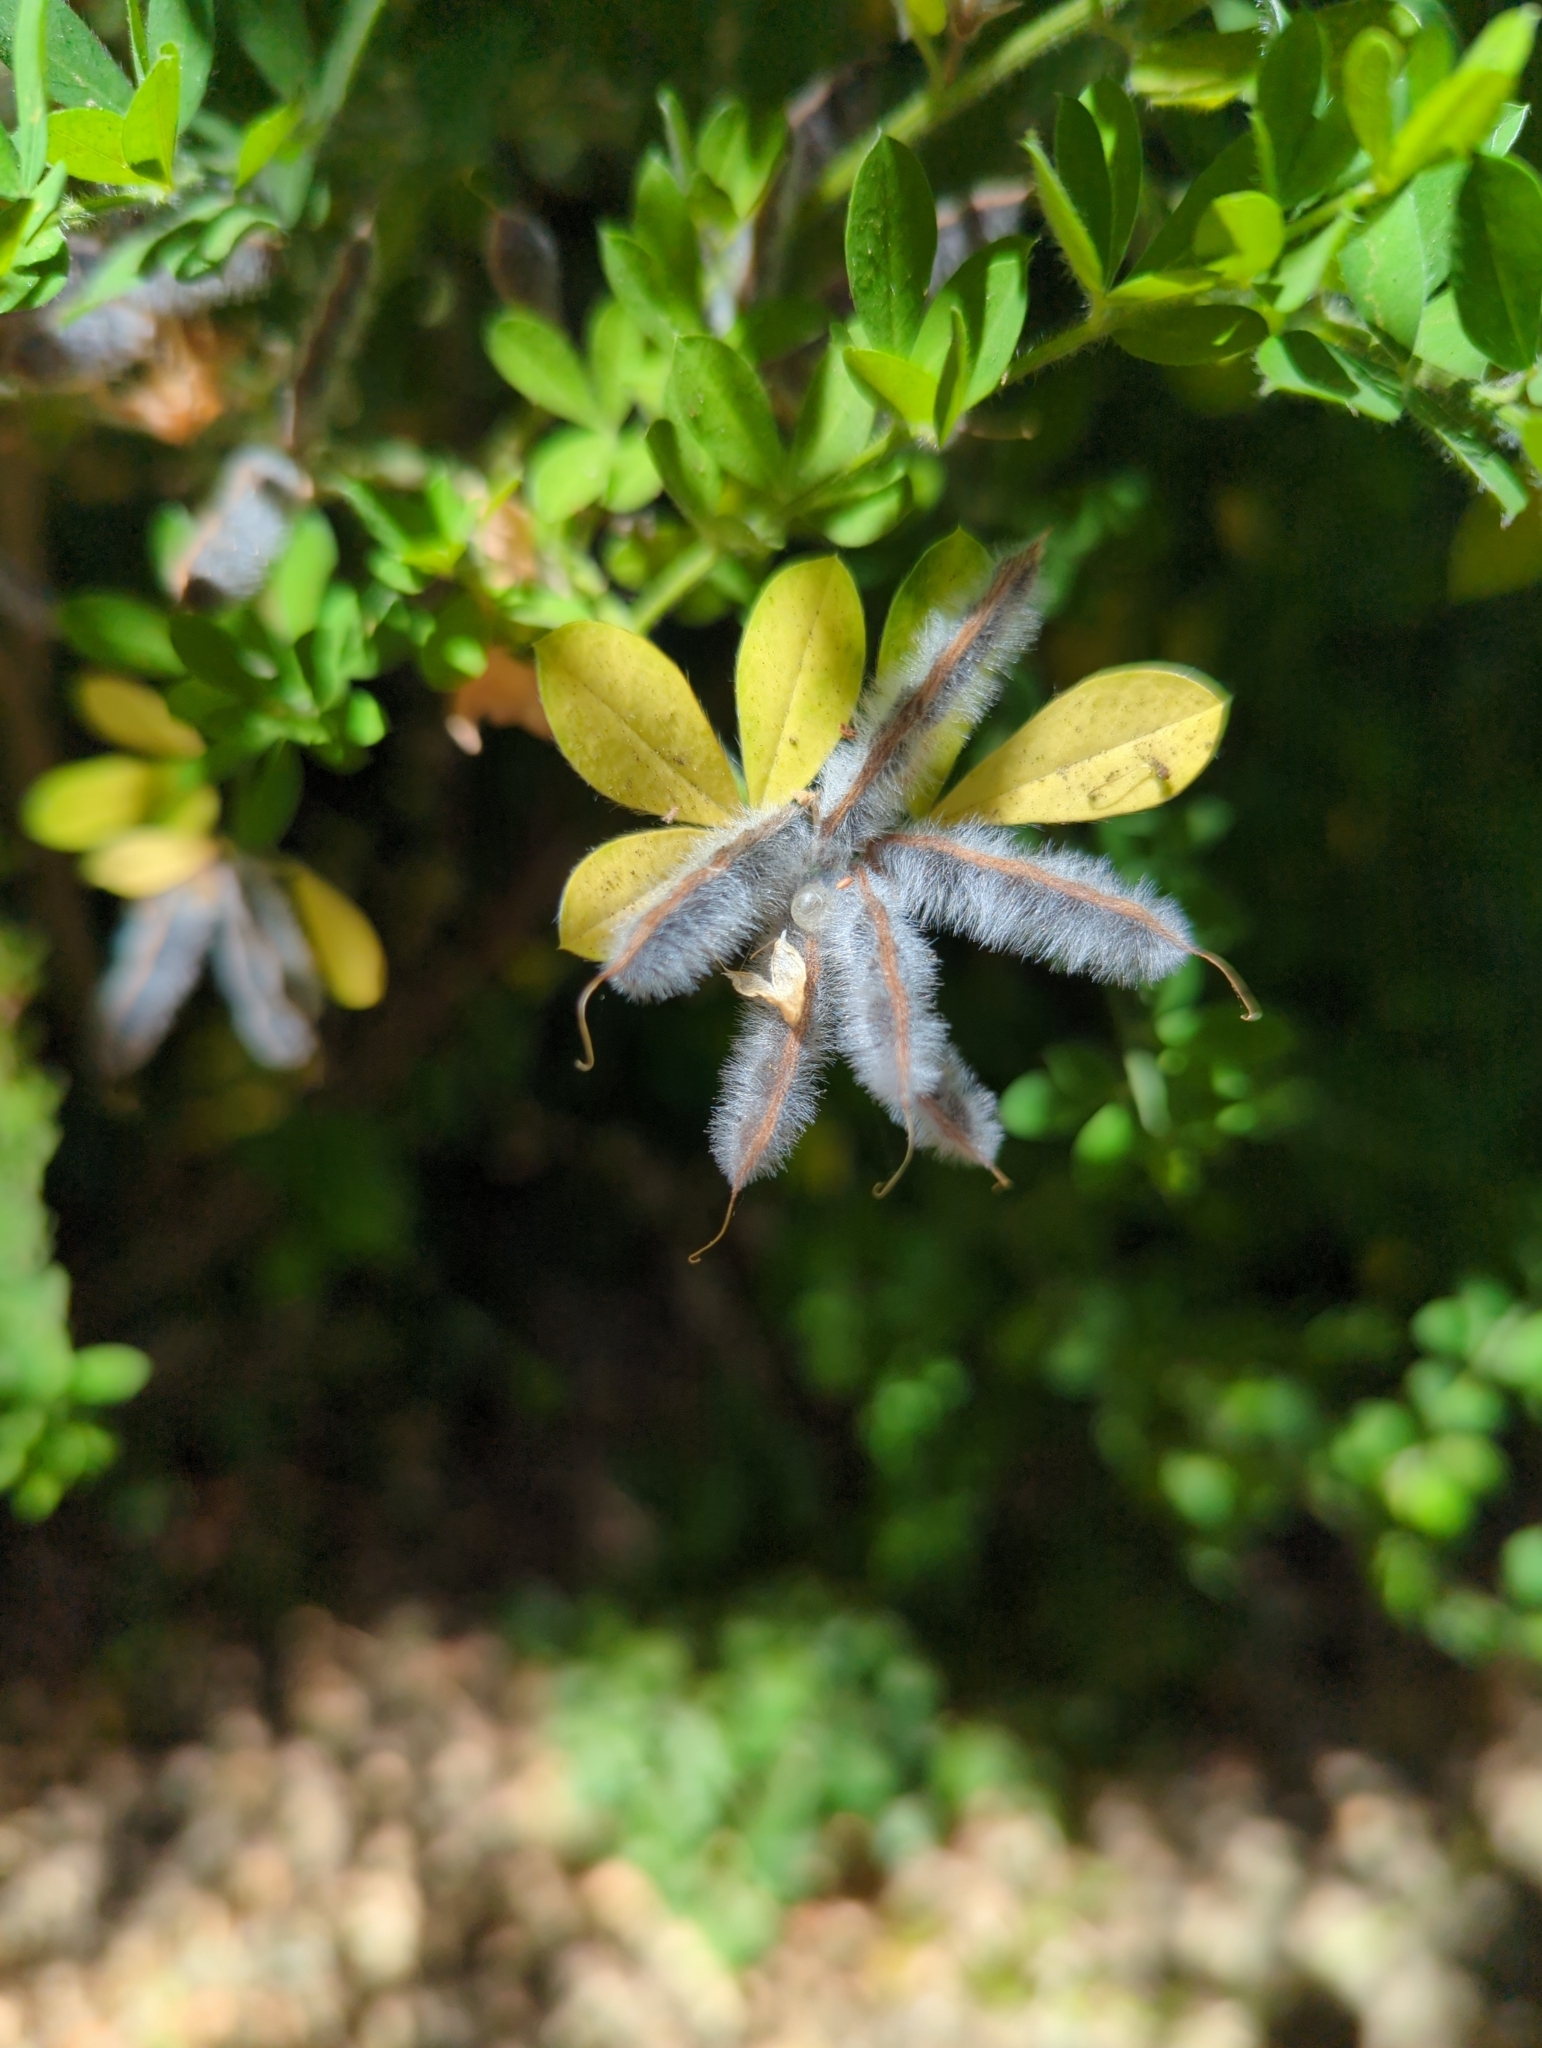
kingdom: Plantae
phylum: Tracheophyta
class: Magnoliopsida
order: Fabales
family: Fabaceae
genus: Genista
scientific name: Genista monspessulana
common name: Montpellier broom
